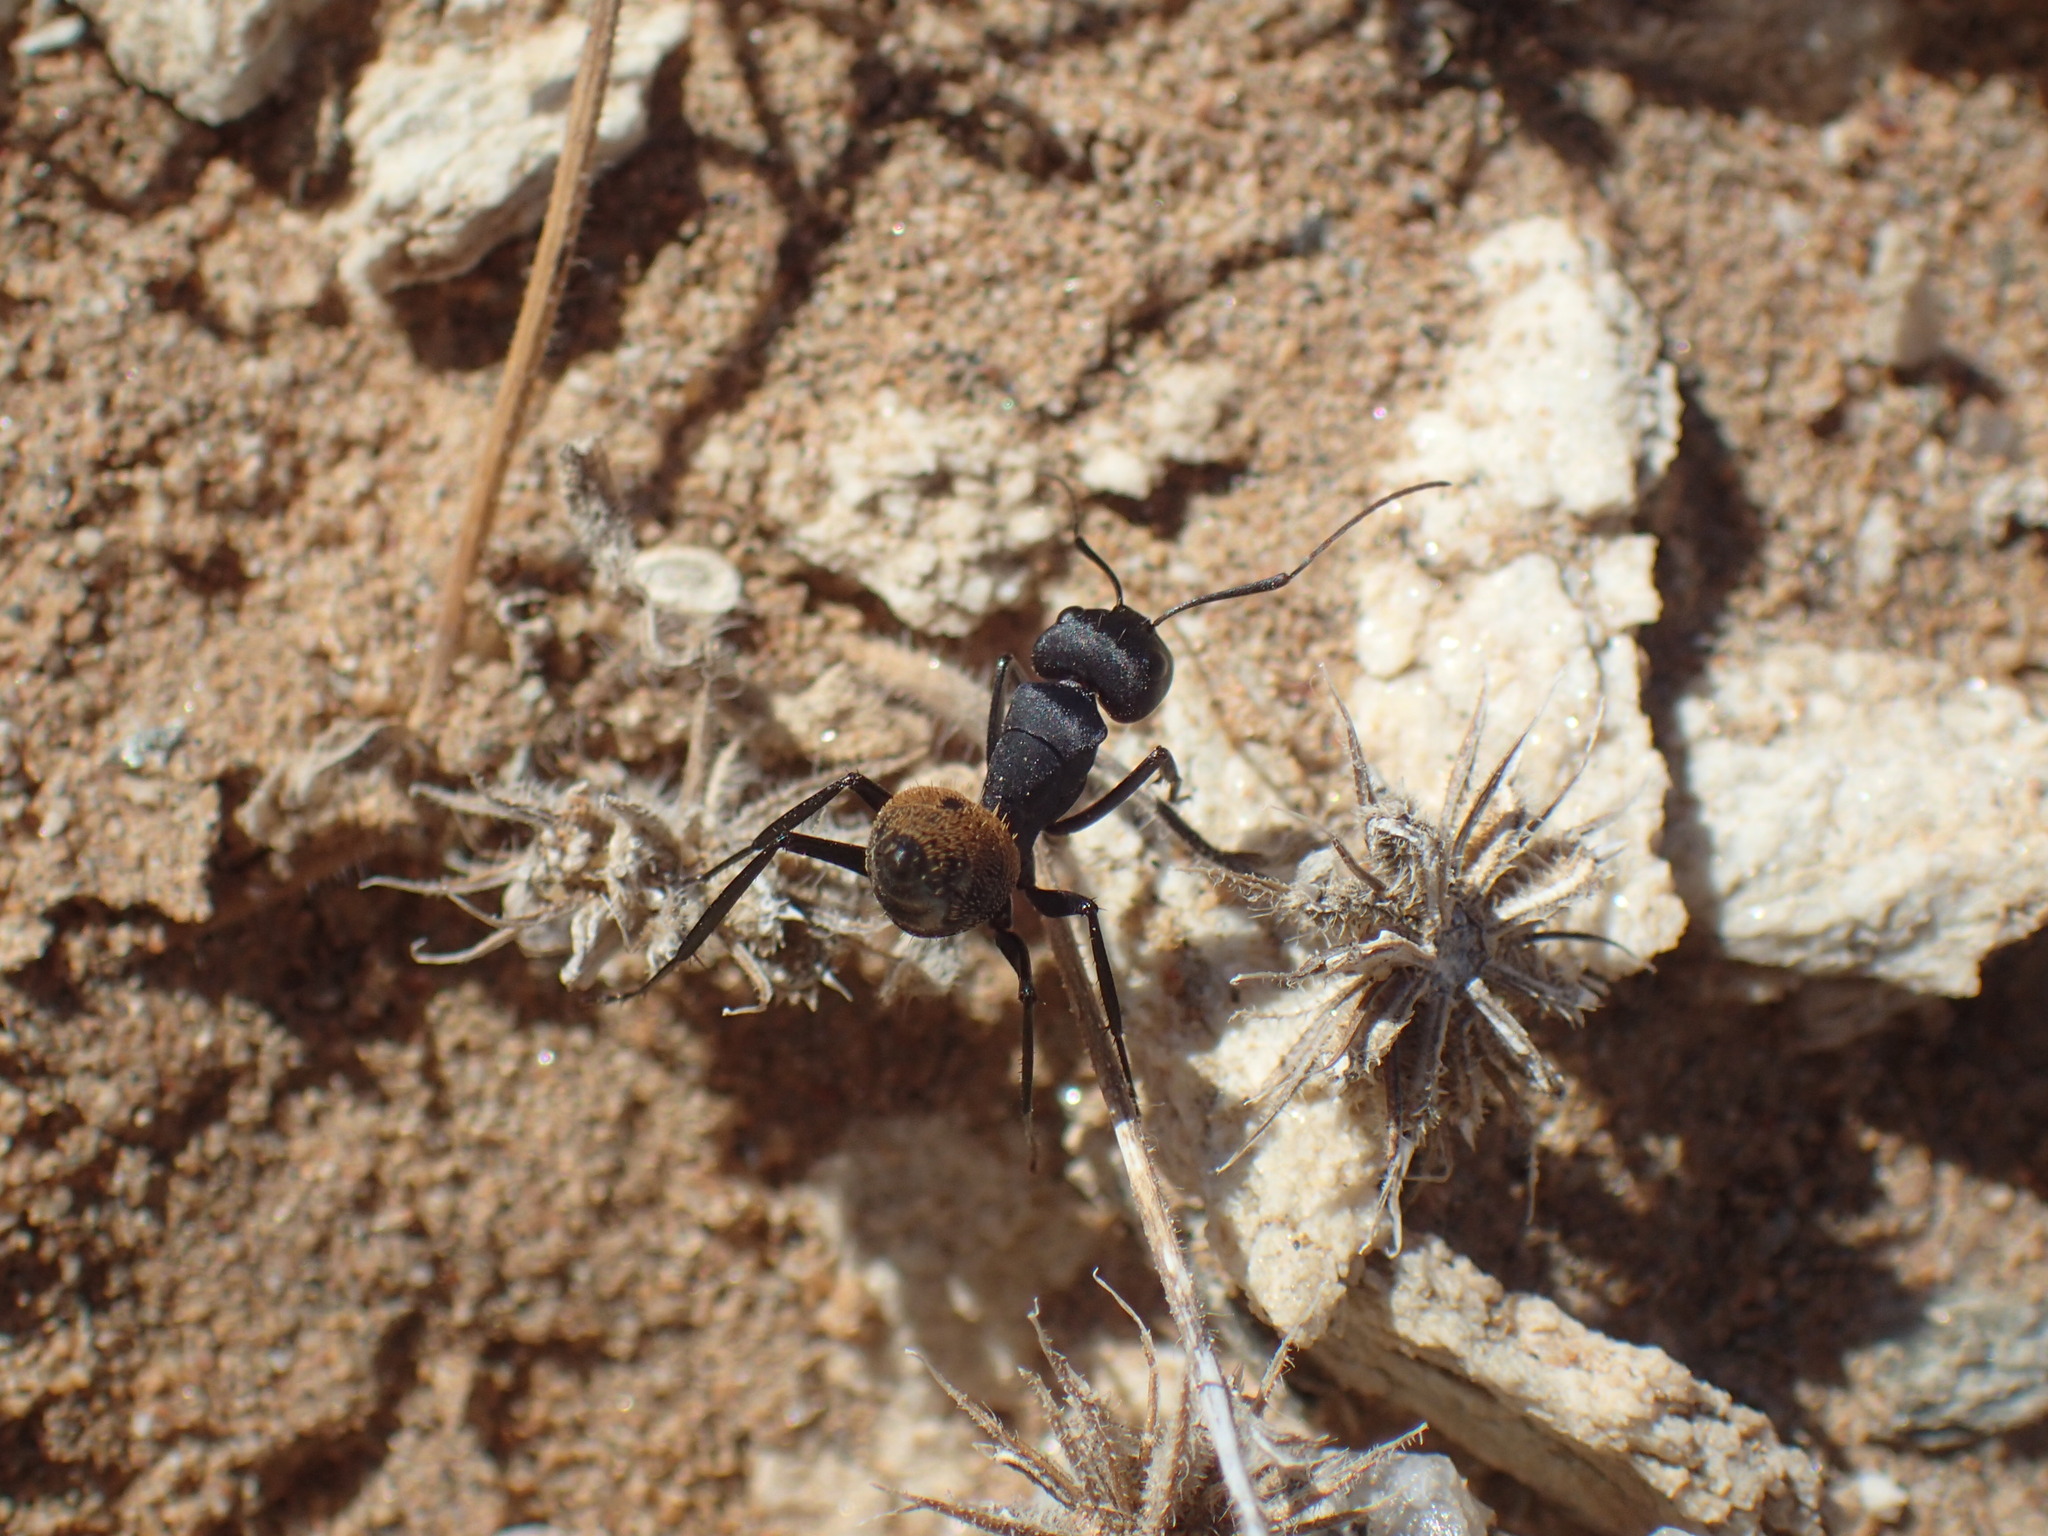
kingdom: Animalia
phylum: Arthropoda
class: Insecta
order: Hymenoptera
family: Formicidae
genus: Camponotus
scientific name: Camponotus fulvopilosus
